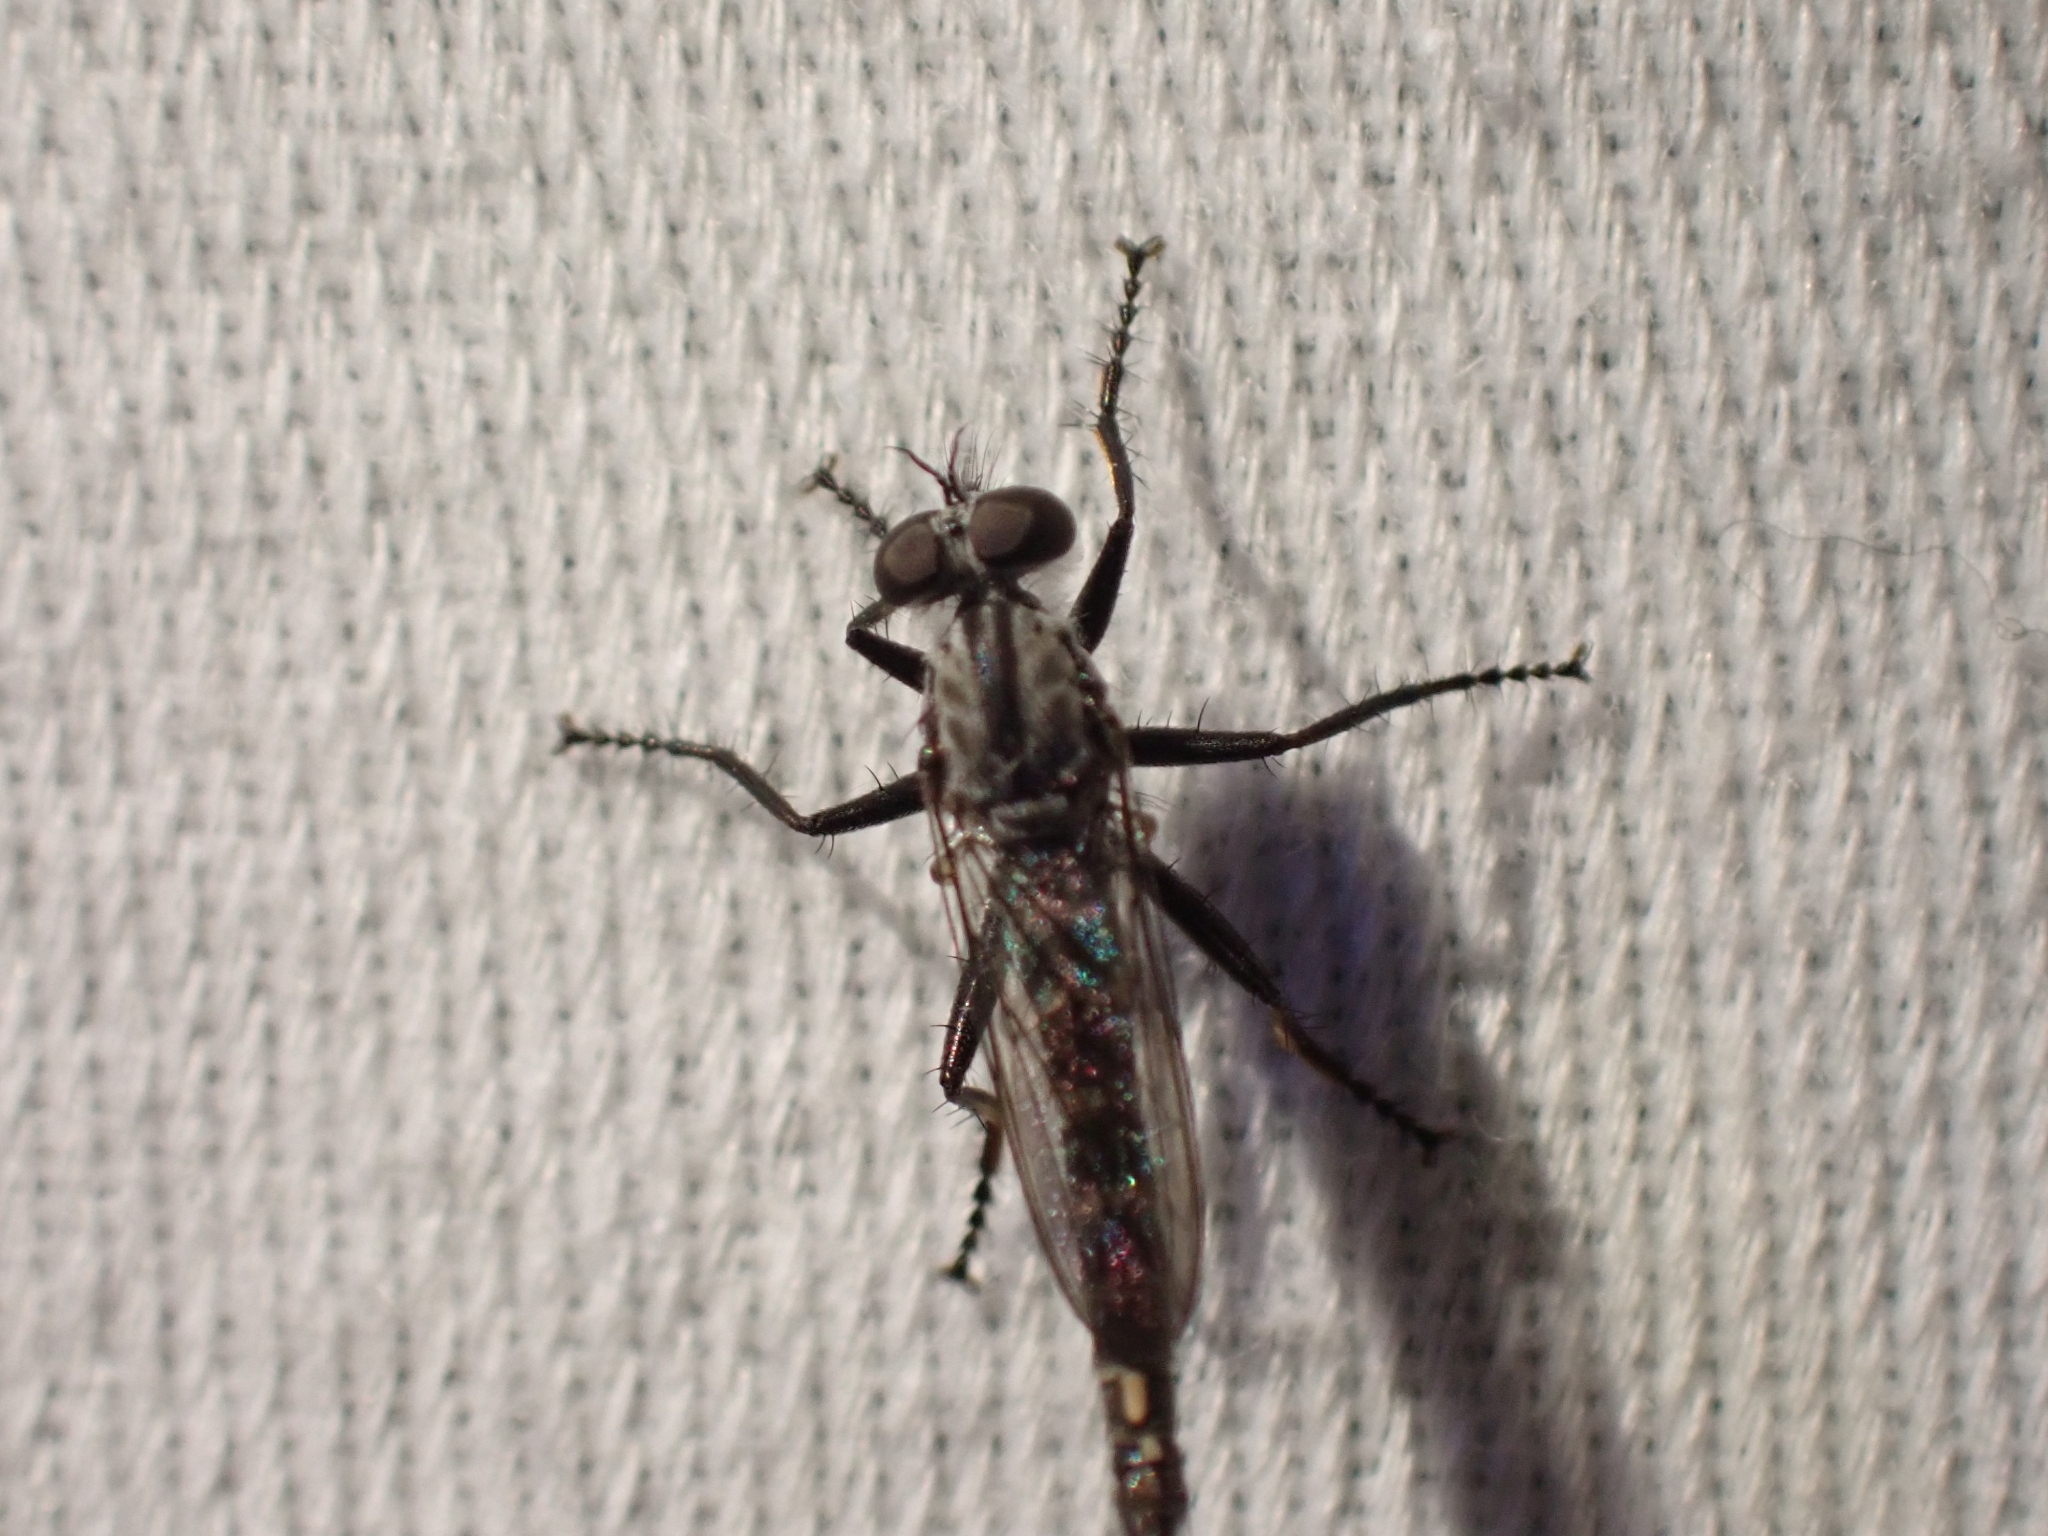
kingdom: Animalia
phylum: Arthropoda
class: Insecta
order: Diptera
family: Asilidae
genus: Rhadiurgus
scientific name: Rhadiurgus variabilis
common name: Northern robberfly
